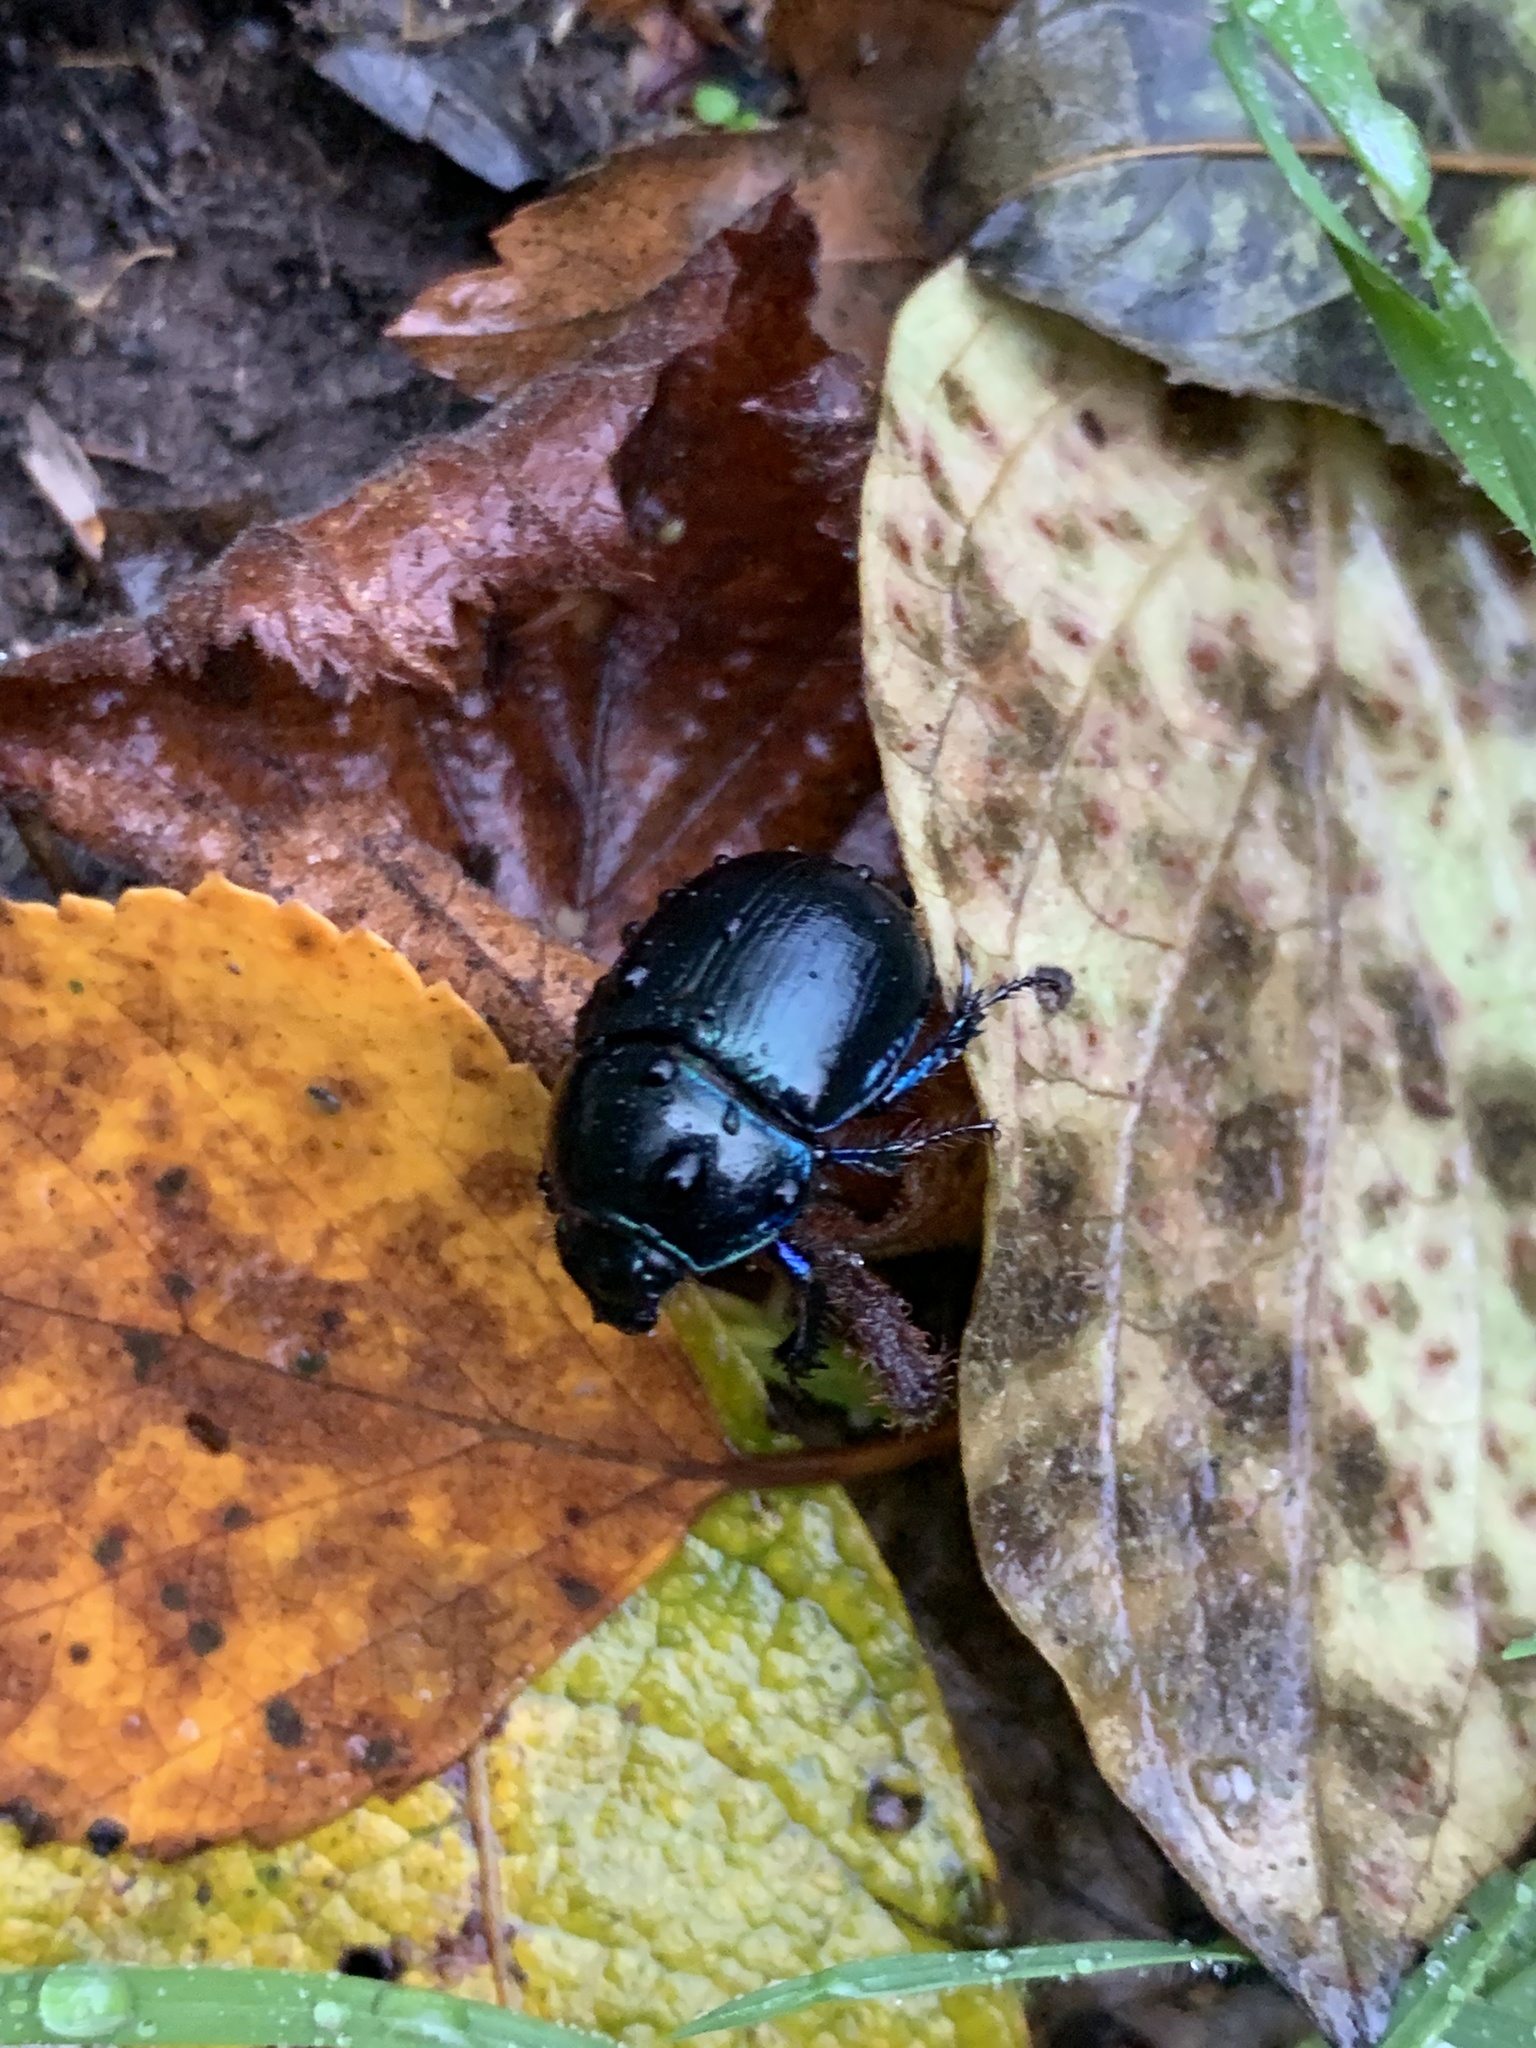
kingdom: Animalia
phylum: Arthropoda
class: Insecta
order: Coleoptera
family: Geotrupidae
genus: Anoplotrupes
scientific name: Anoplotrupes stercorosus
